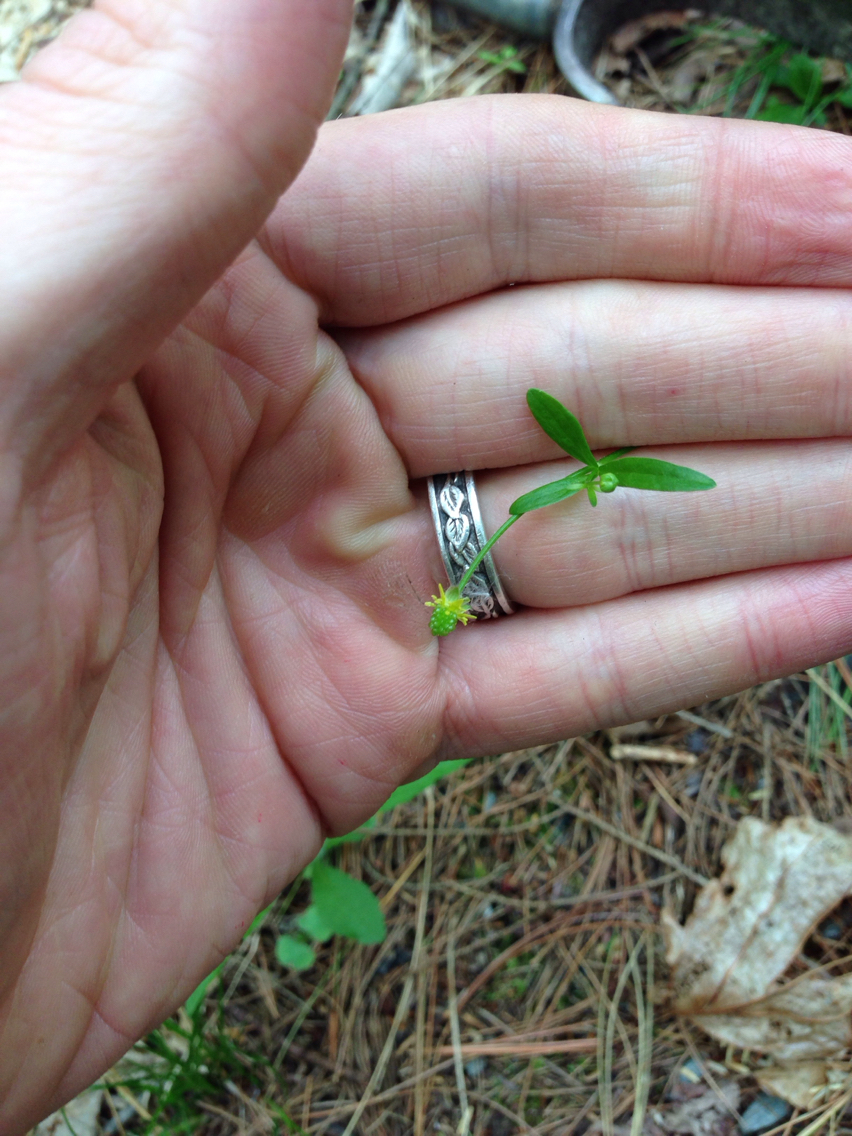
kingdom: Plantae
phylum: Tracheophyta
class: Magnoliopsida
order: Ranunculales
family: Ranunculaceae
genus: Ranunculus
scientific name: Ranunculus abortivus
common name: Early wood buttercup
